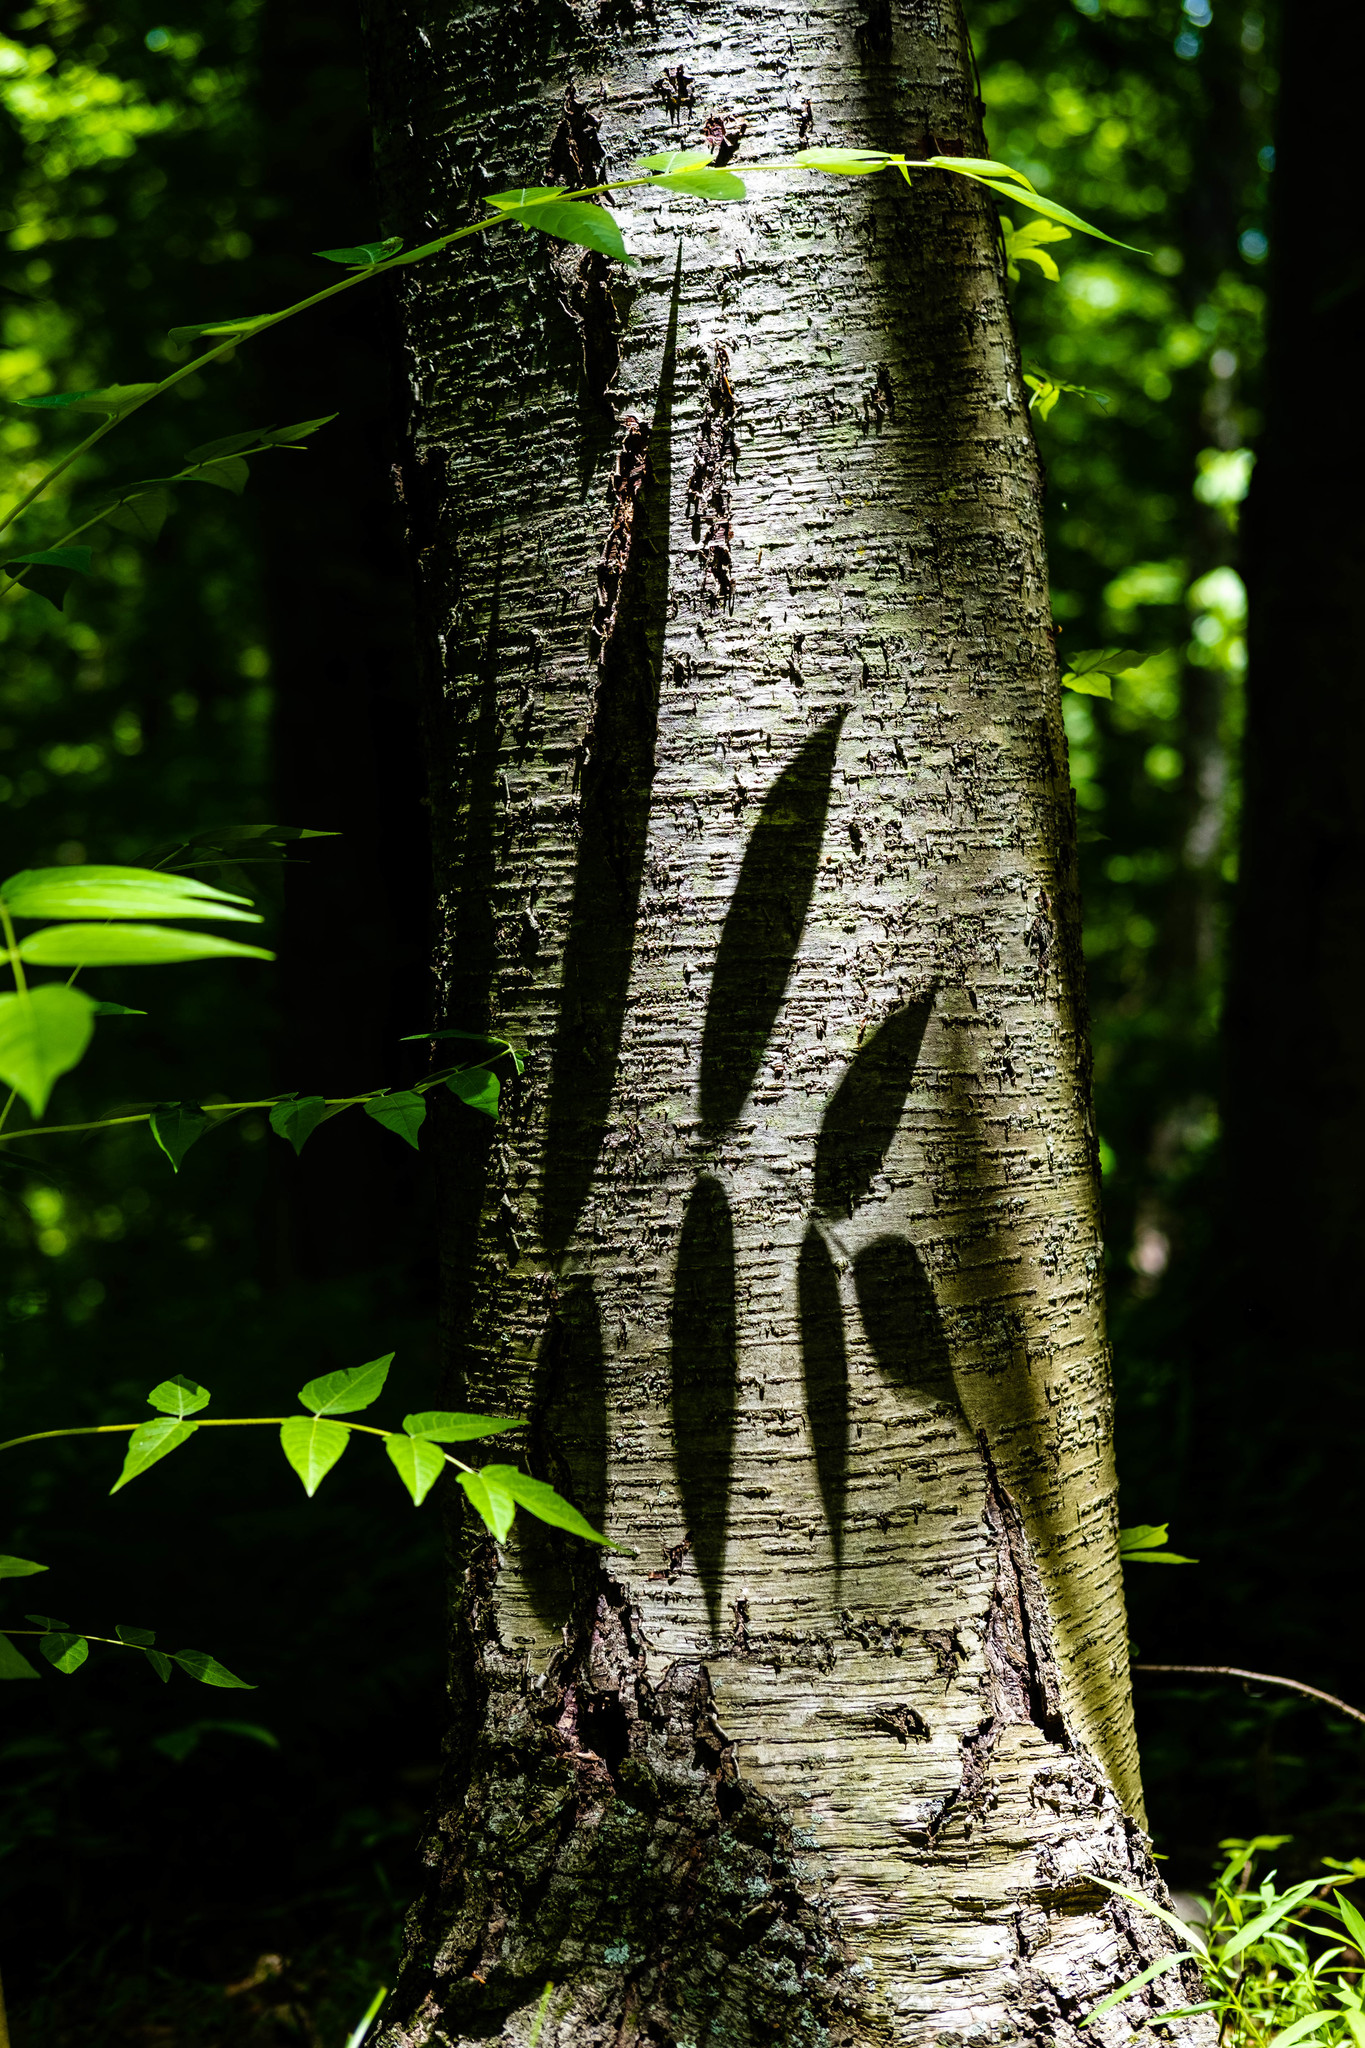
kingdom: Plantae
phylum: Tracheophyta
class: Magnoliopsida
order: Sapindales
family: Simaroubaceae
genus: Ailanthus
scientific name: Ailanthus altissima
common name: Tree-of-heaven
